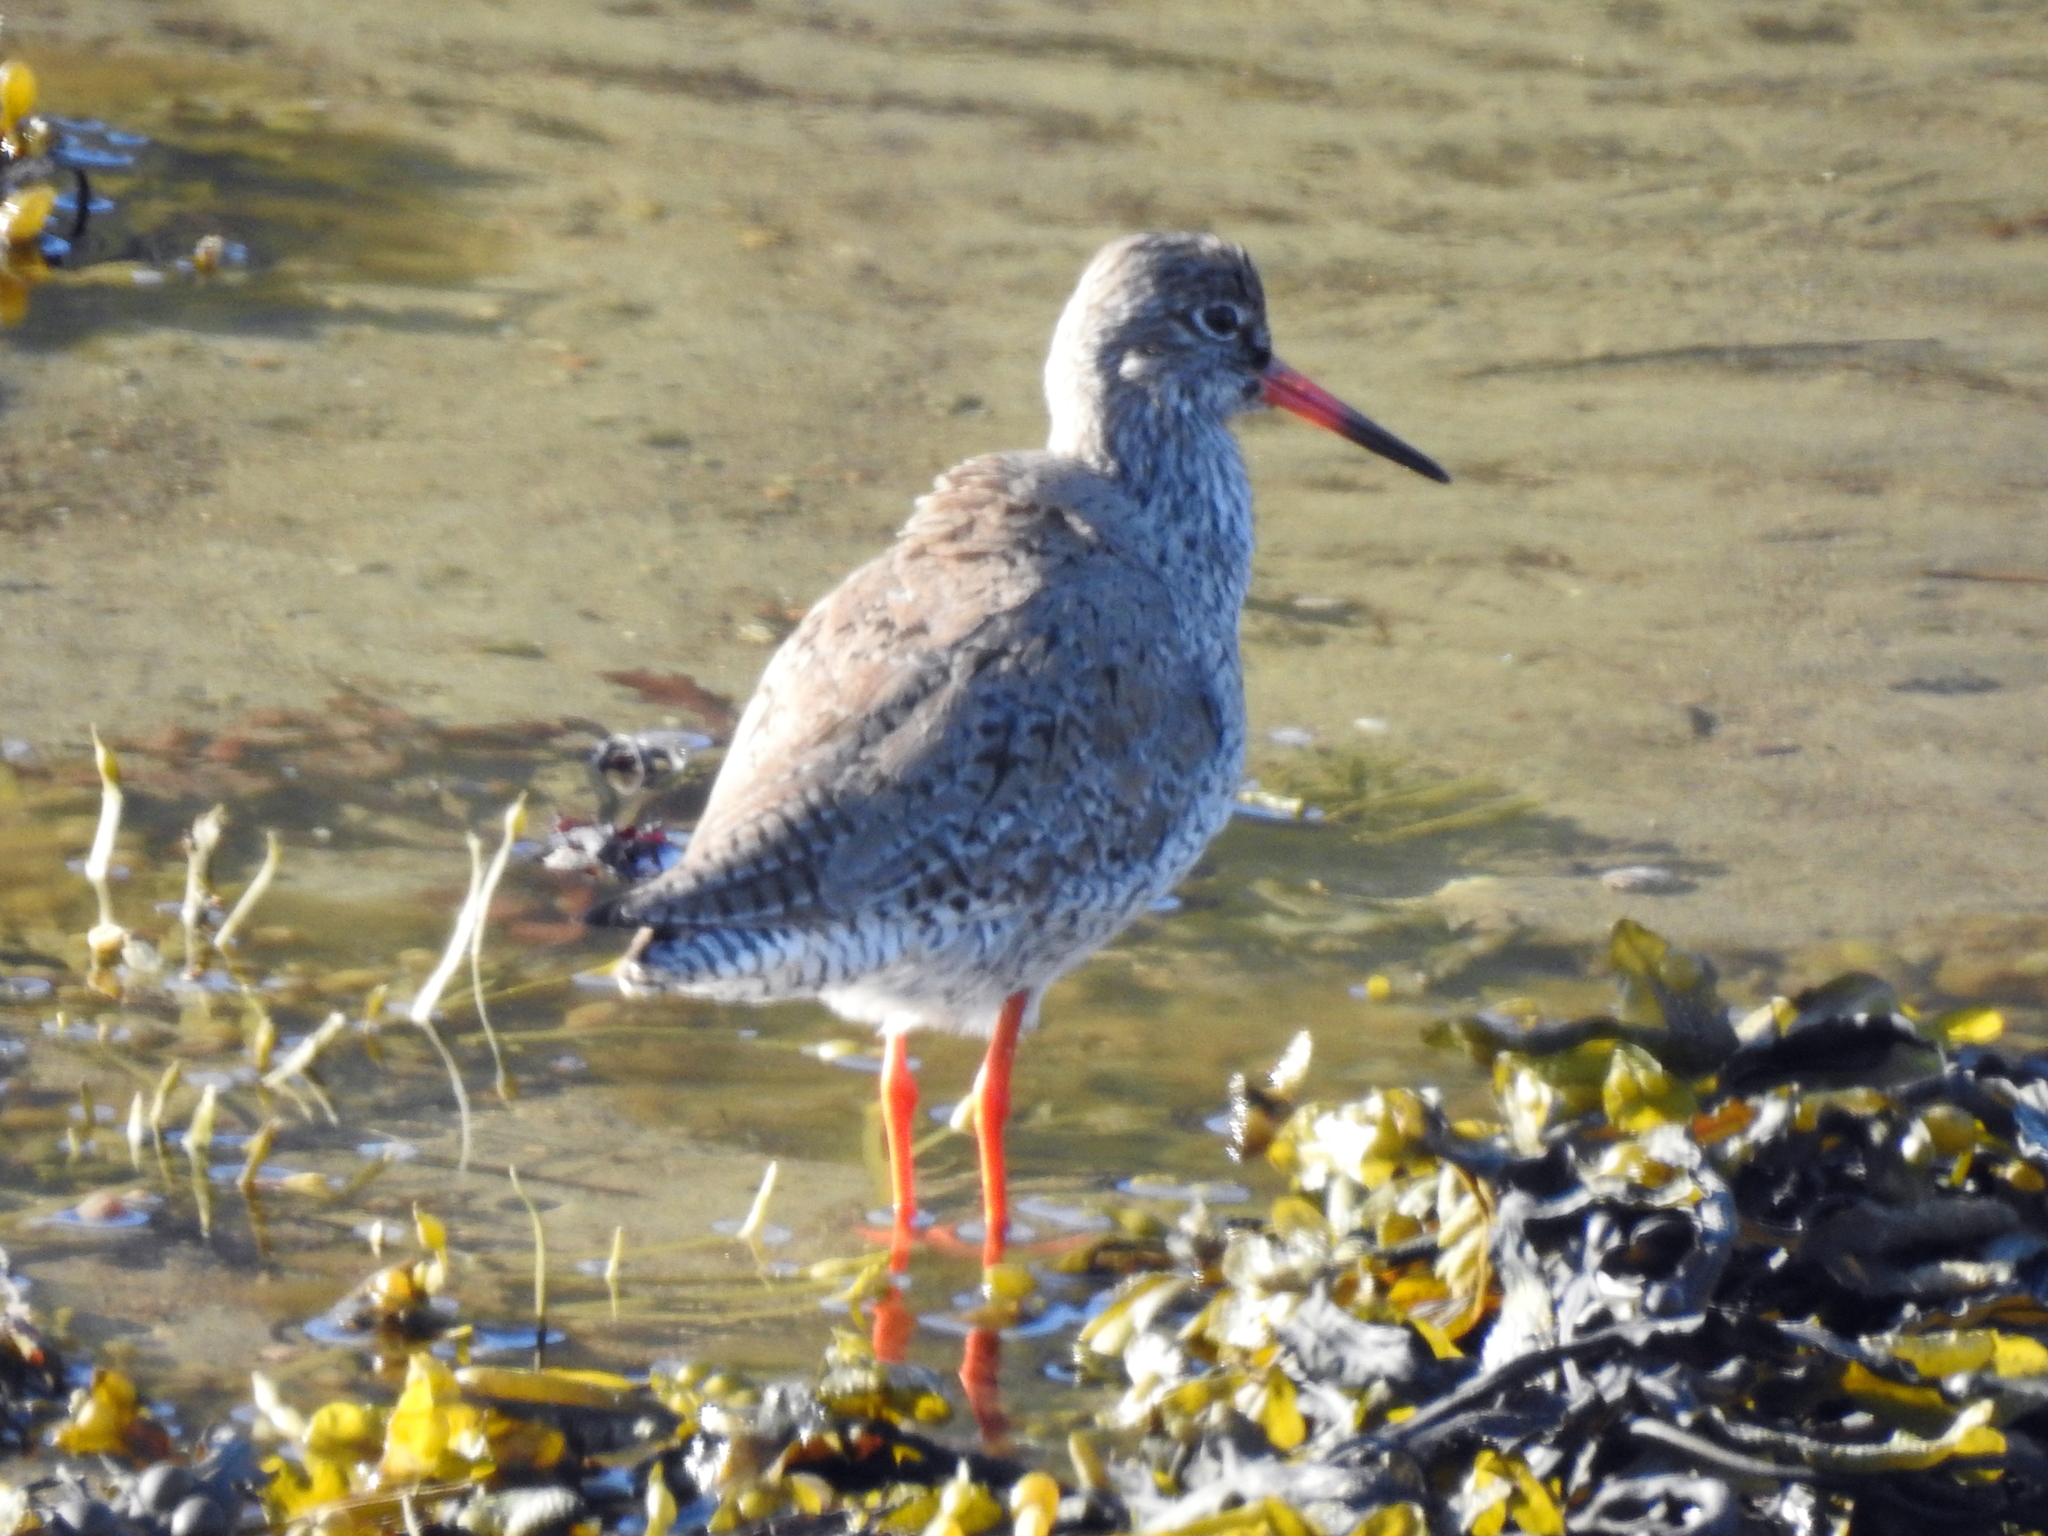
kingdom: Animalia
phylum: Chordata
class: Aves
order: Charadriiformes
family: Scolopacidae
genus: Tringa
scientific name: Tringa totanus
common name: Common redshank
